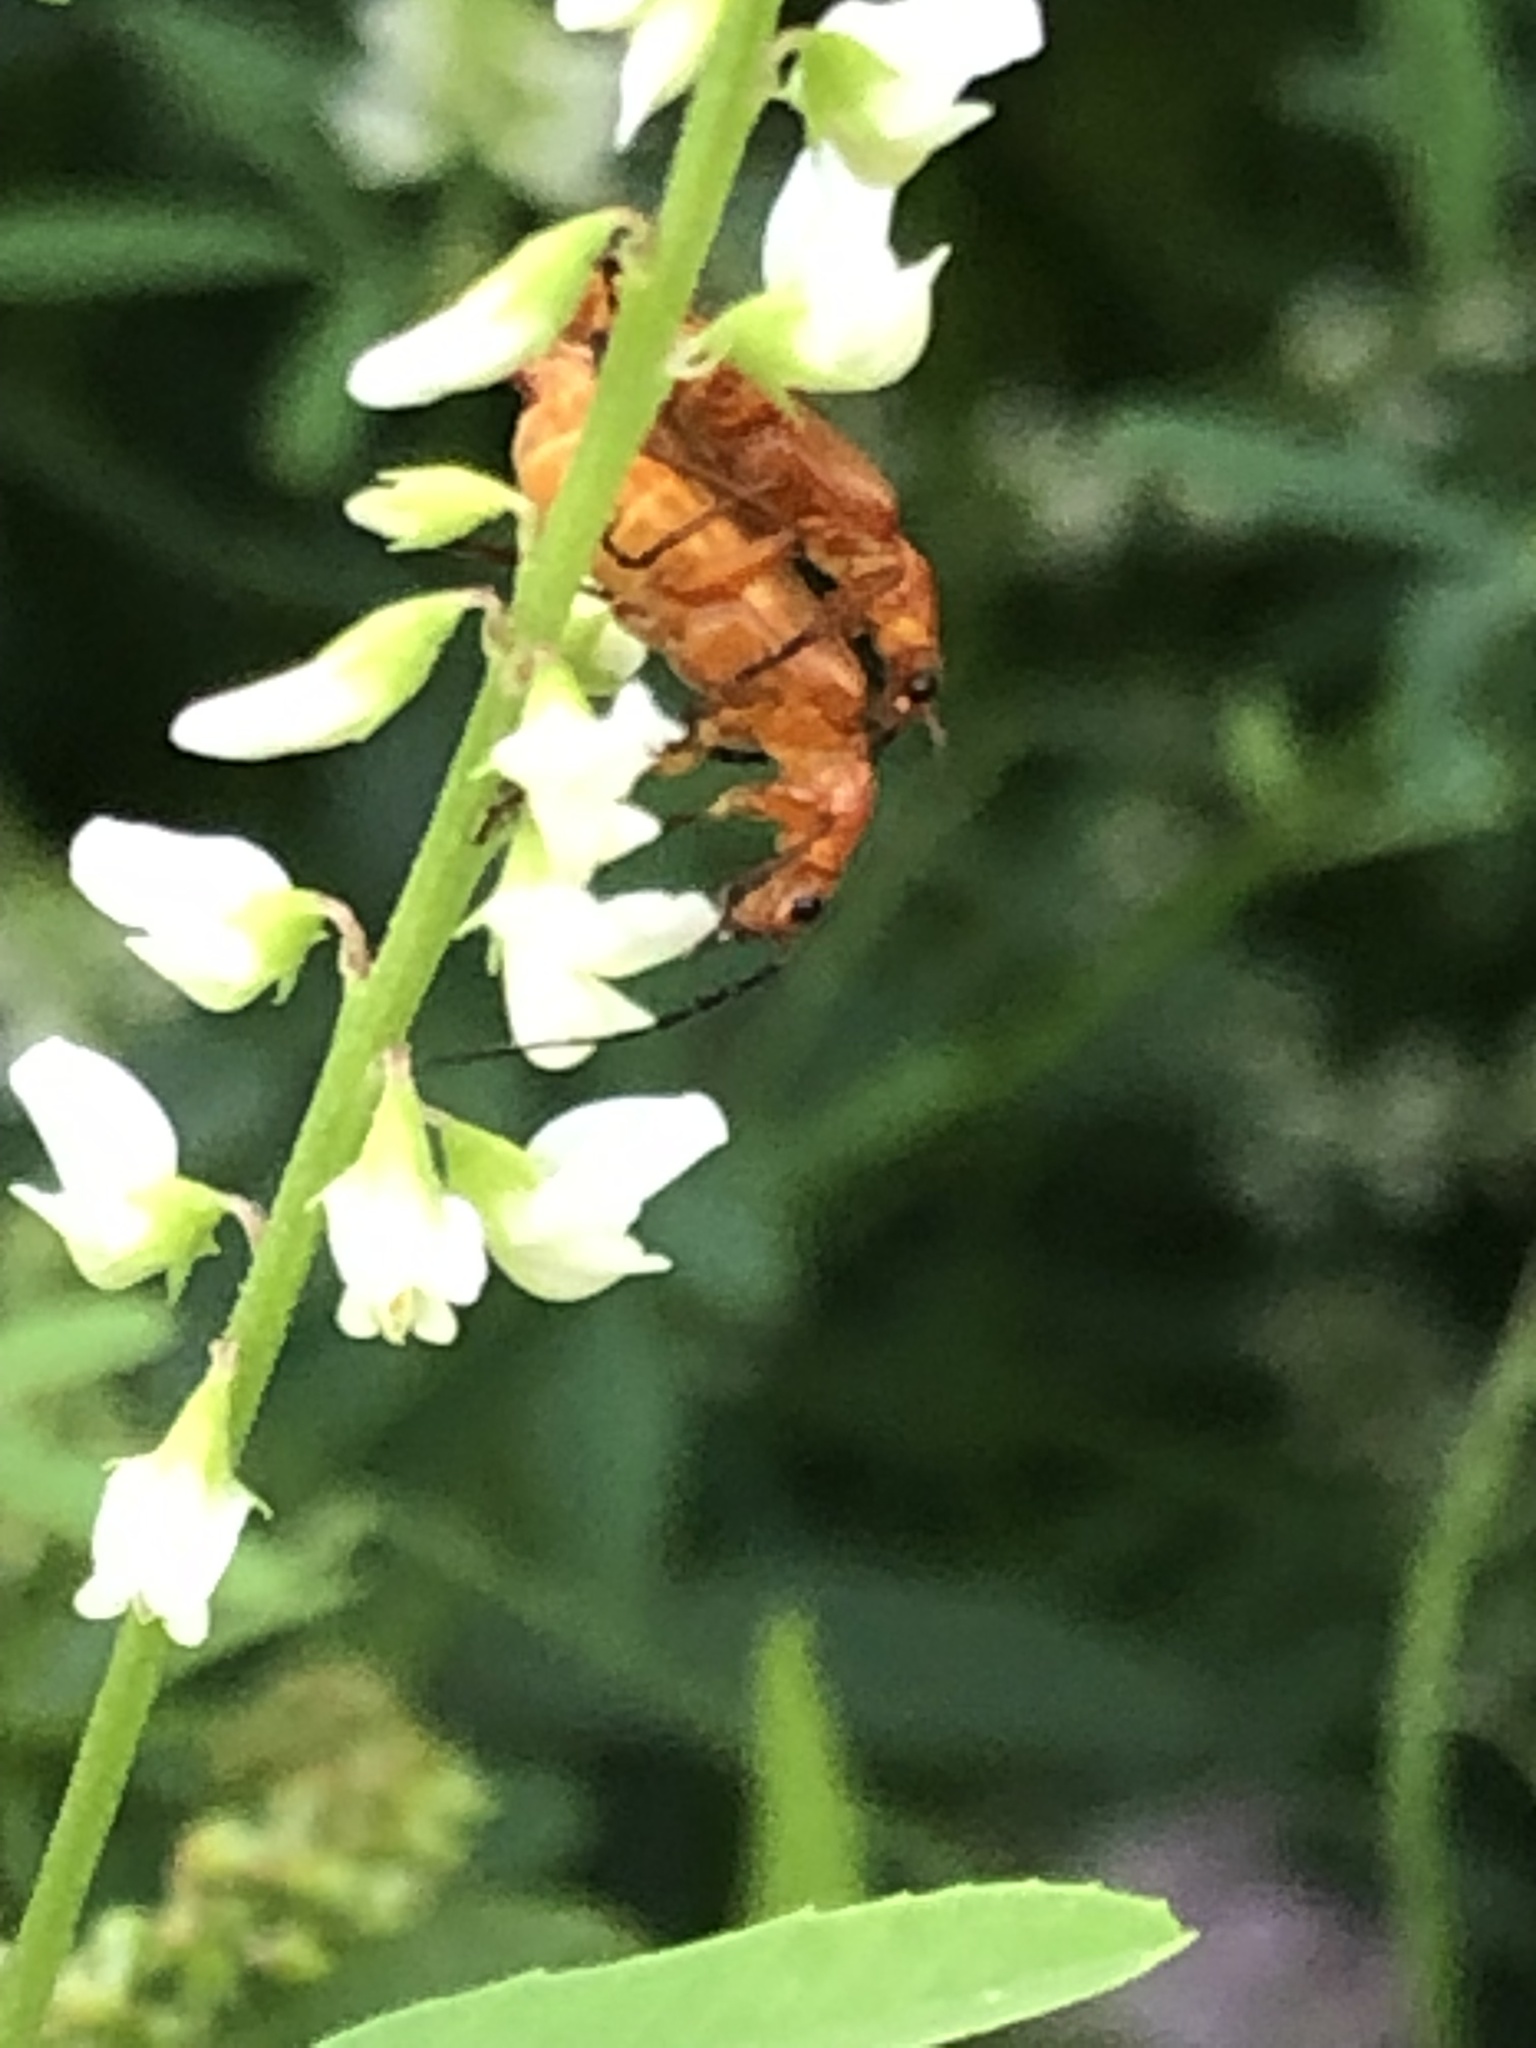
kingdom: Animalia
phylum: Arthropoda
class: Insecta
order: Coleoptera
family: Cantharidae
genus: Rhagonycha
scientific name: Rhagonycha fulva
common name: Common red soldier beetle
